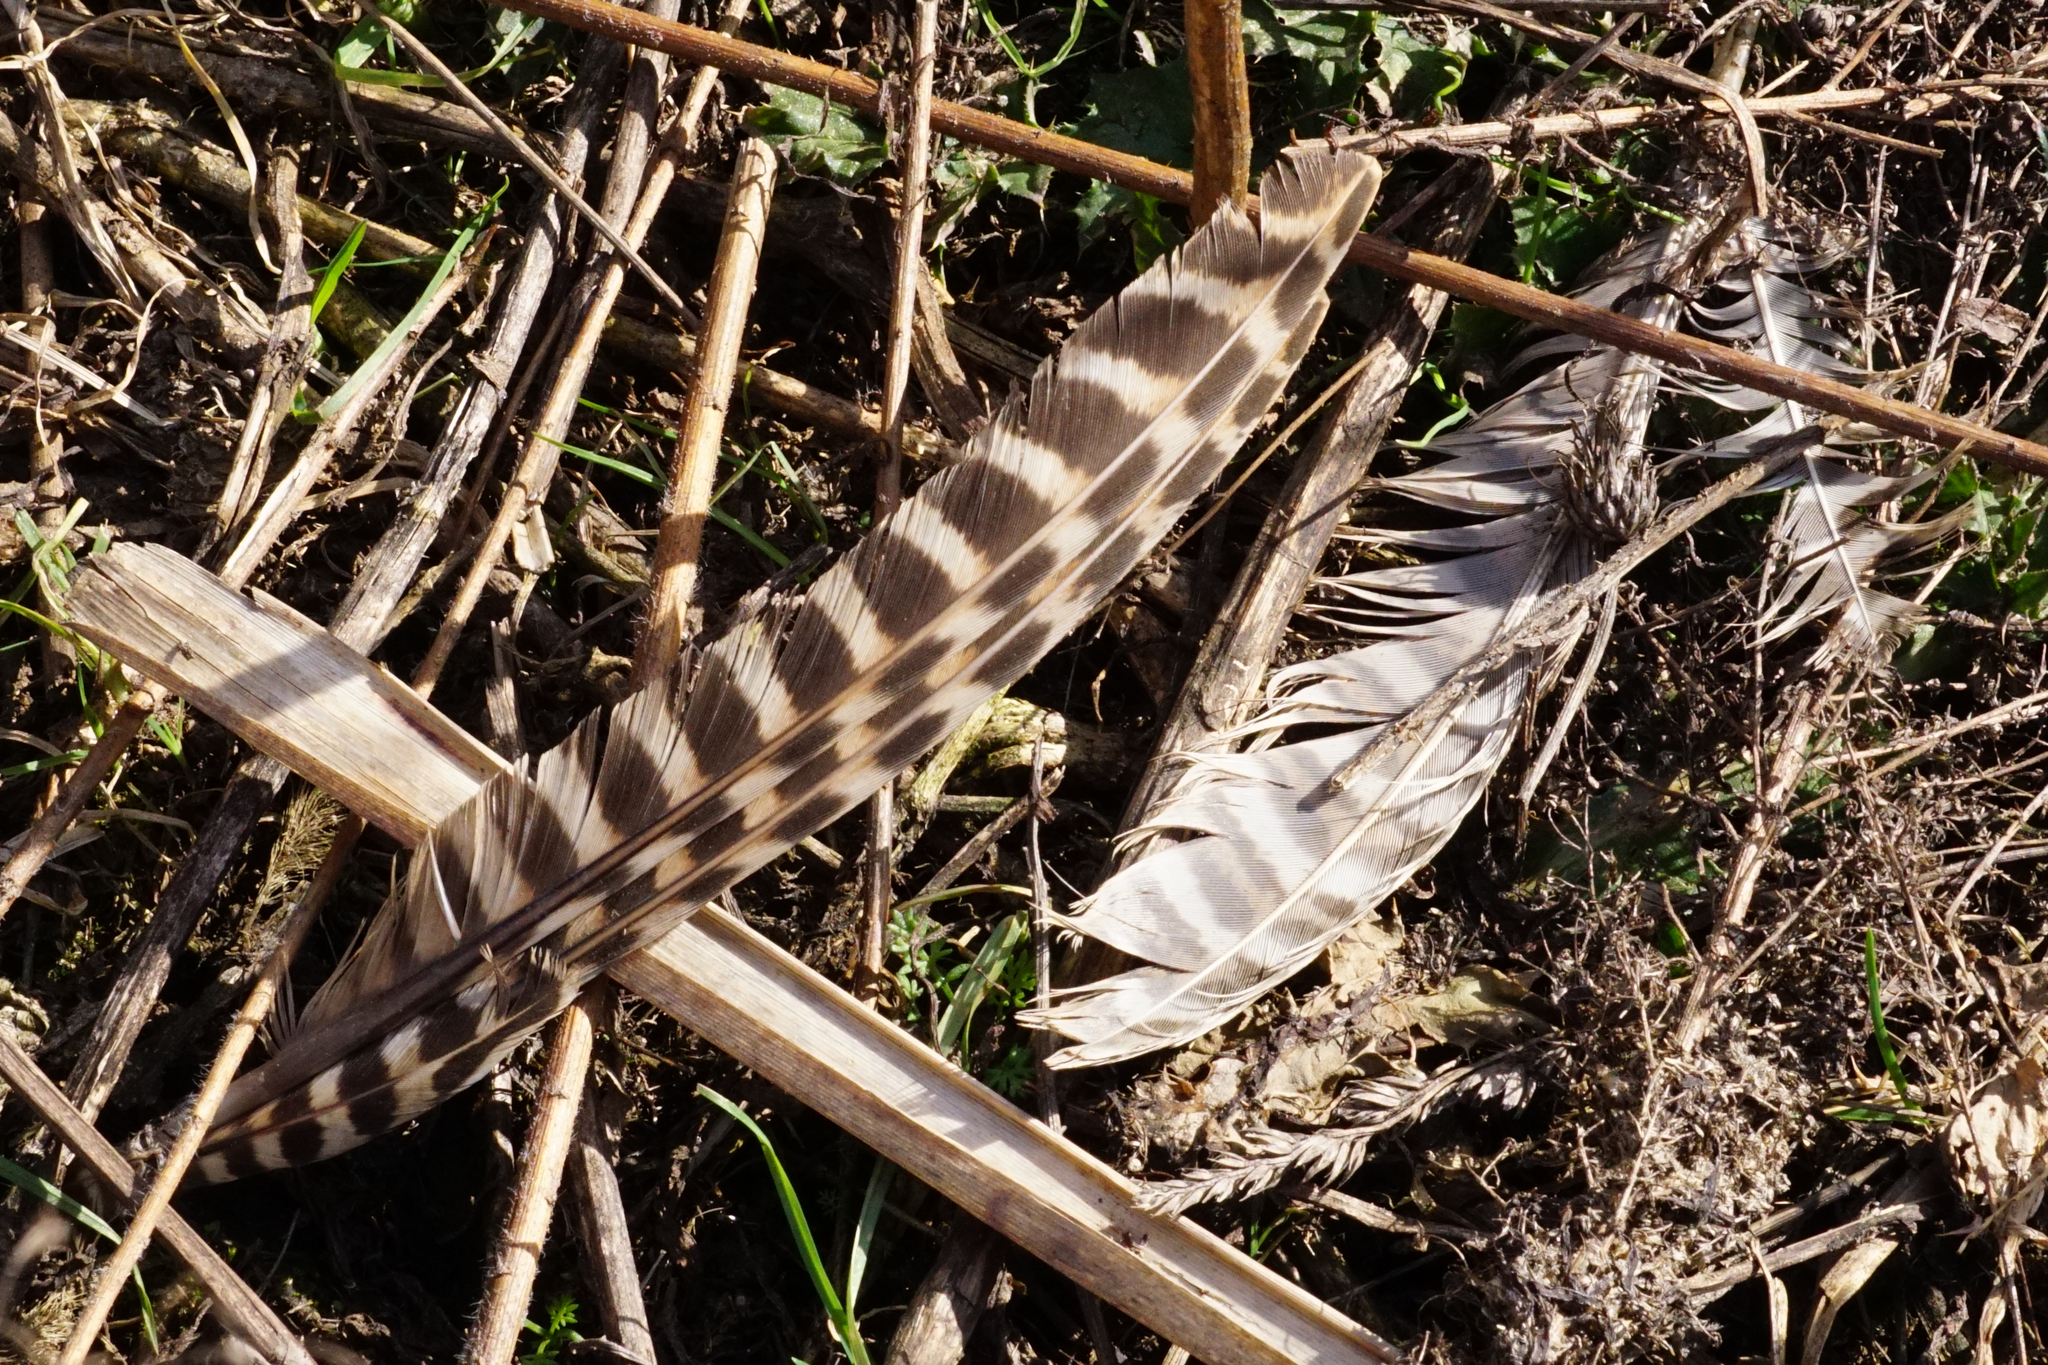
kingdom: Animalia
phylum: Chordata
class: Aves
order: Galliformes
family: Phasianidae
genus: Phasianus
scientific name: Phasianus colchicus
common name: Common pheasant
